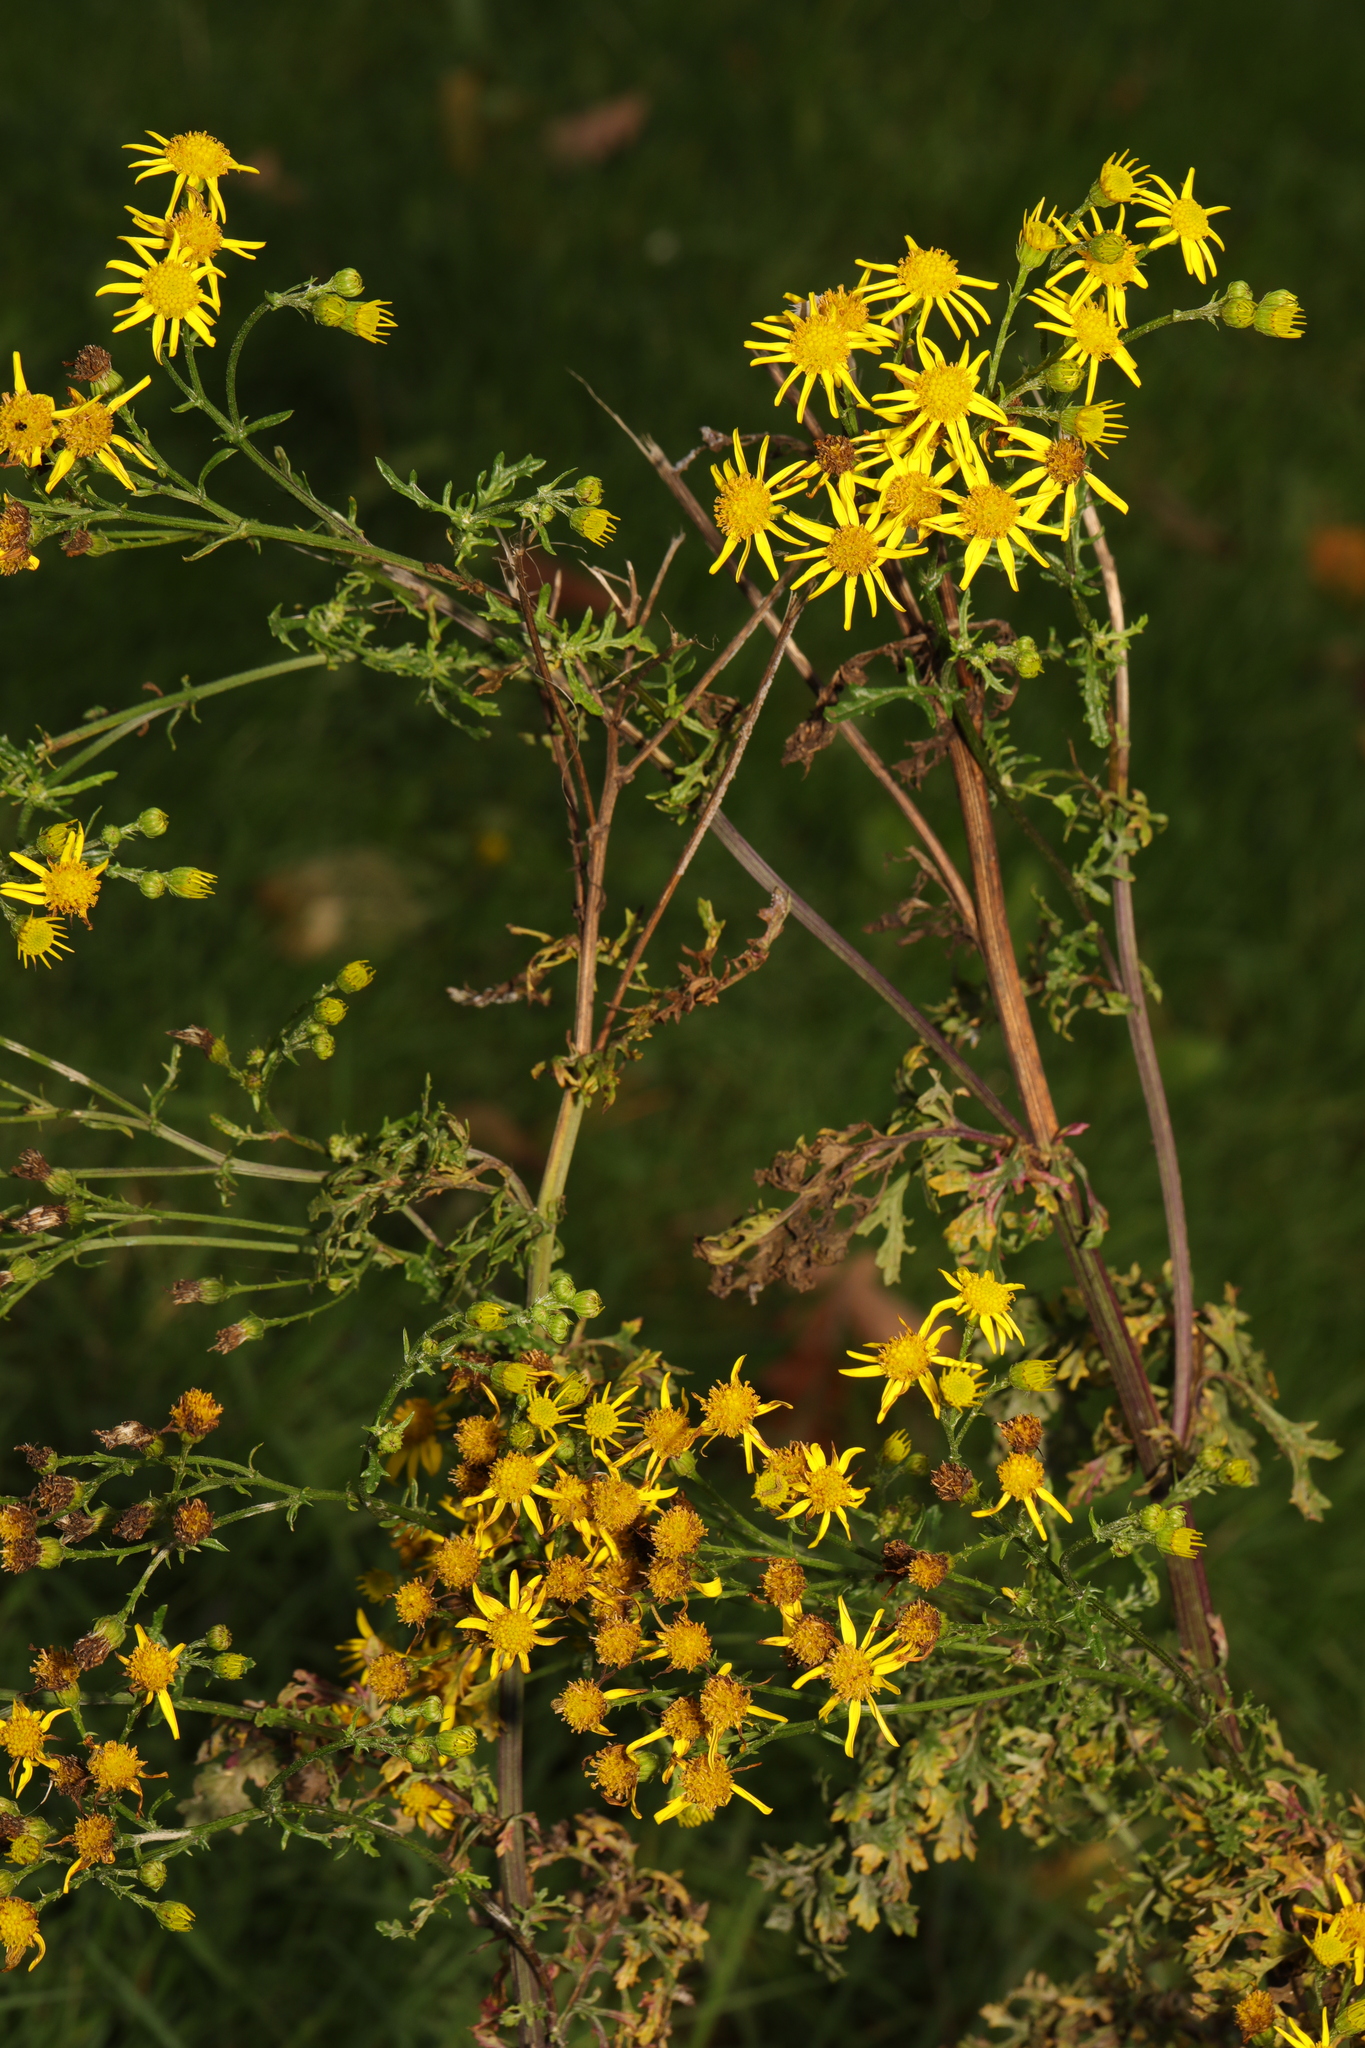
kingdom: Plantae
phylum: Tracheophyta
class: Magnoliopsida
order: Asterales
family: Asteraceae
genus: Jacobaea
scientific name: Jacobaea vulgaris
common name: Stinking willie
